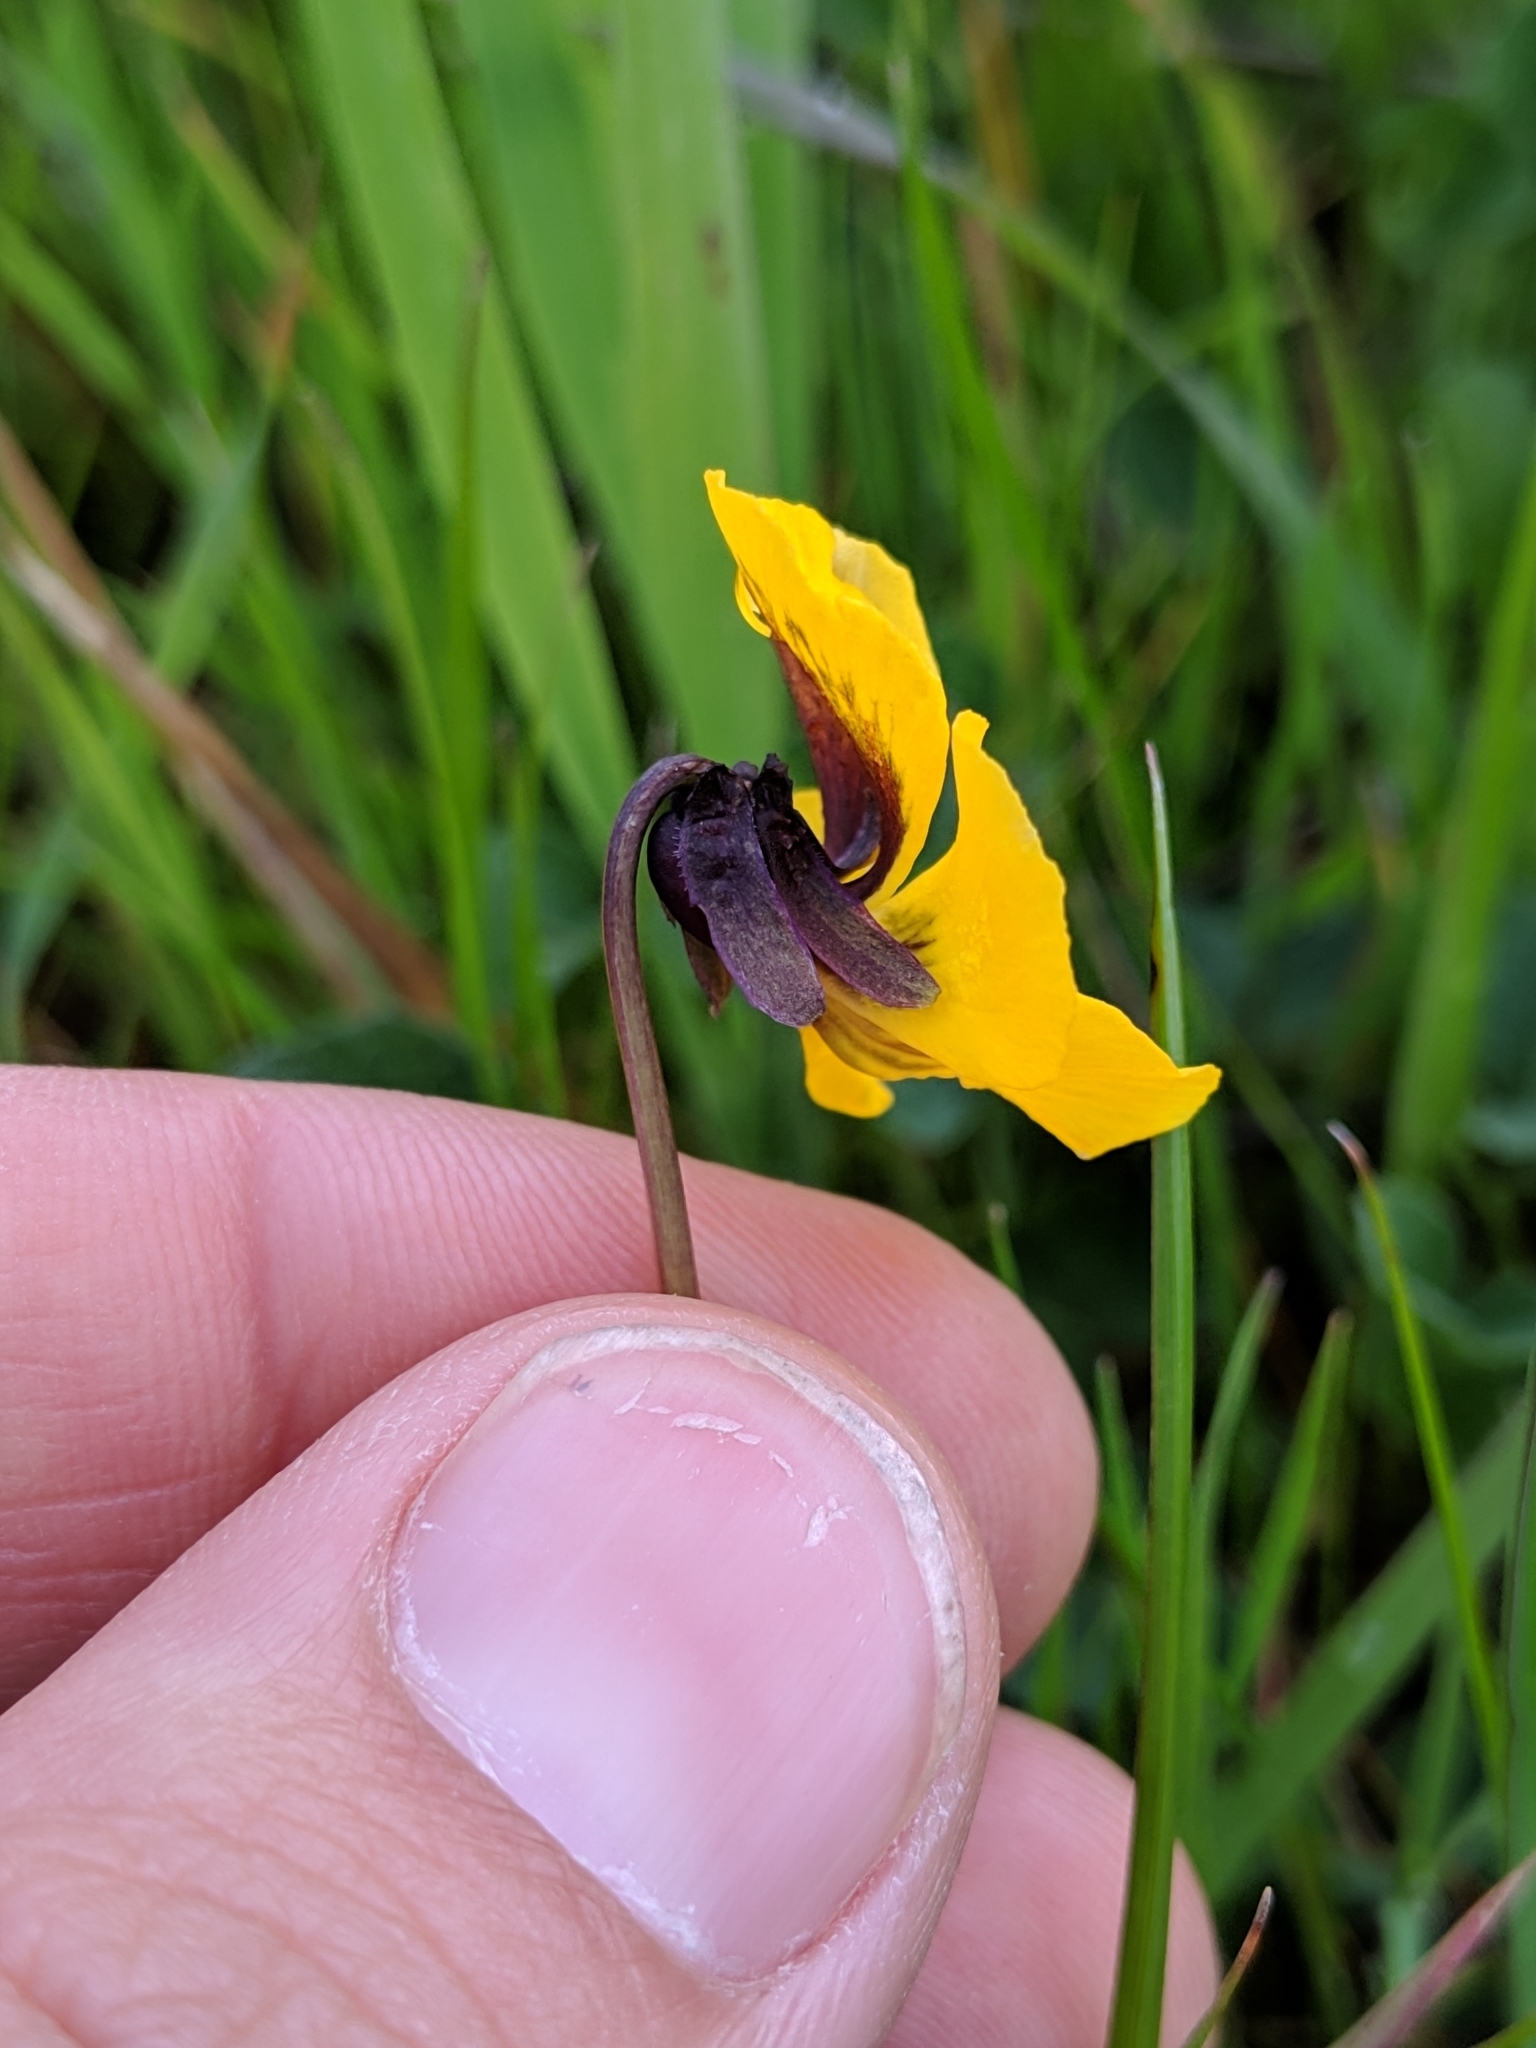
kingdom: Plantae
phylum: Tracheophyta
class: Magnoliopsida
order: Malpighiales
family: Violaceae
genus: Viola
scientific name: Viola pedunculata
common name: California golden violet
